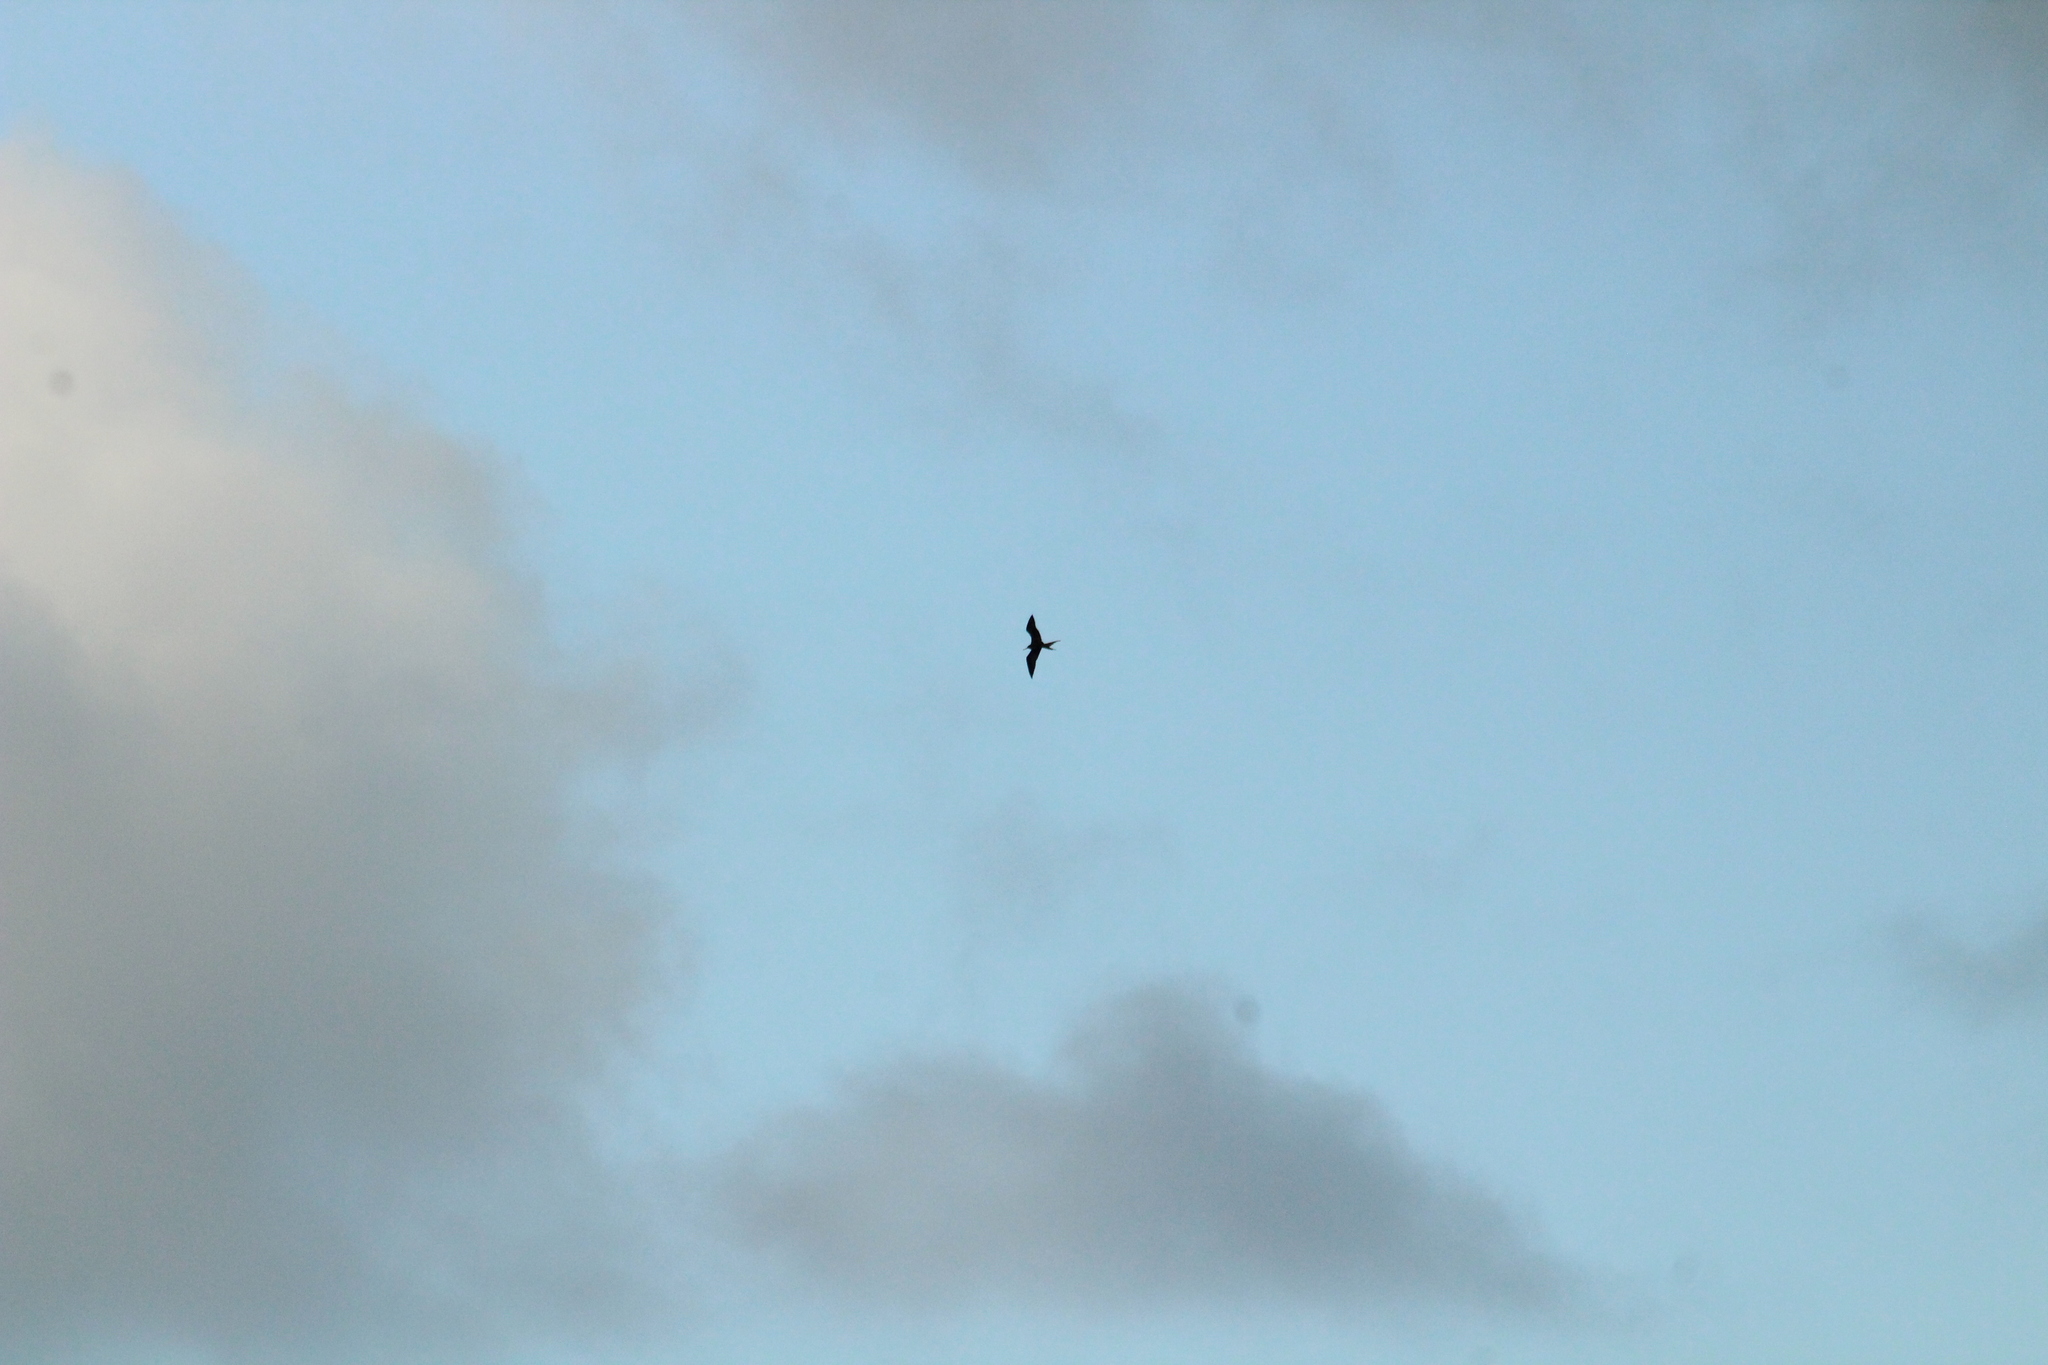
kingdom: Animalia
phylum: Chordata
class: Aves
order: Suliformes
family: Fregatidae
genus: Fregata
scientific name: Fregata magnificens
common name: Magnificent frigatebird
